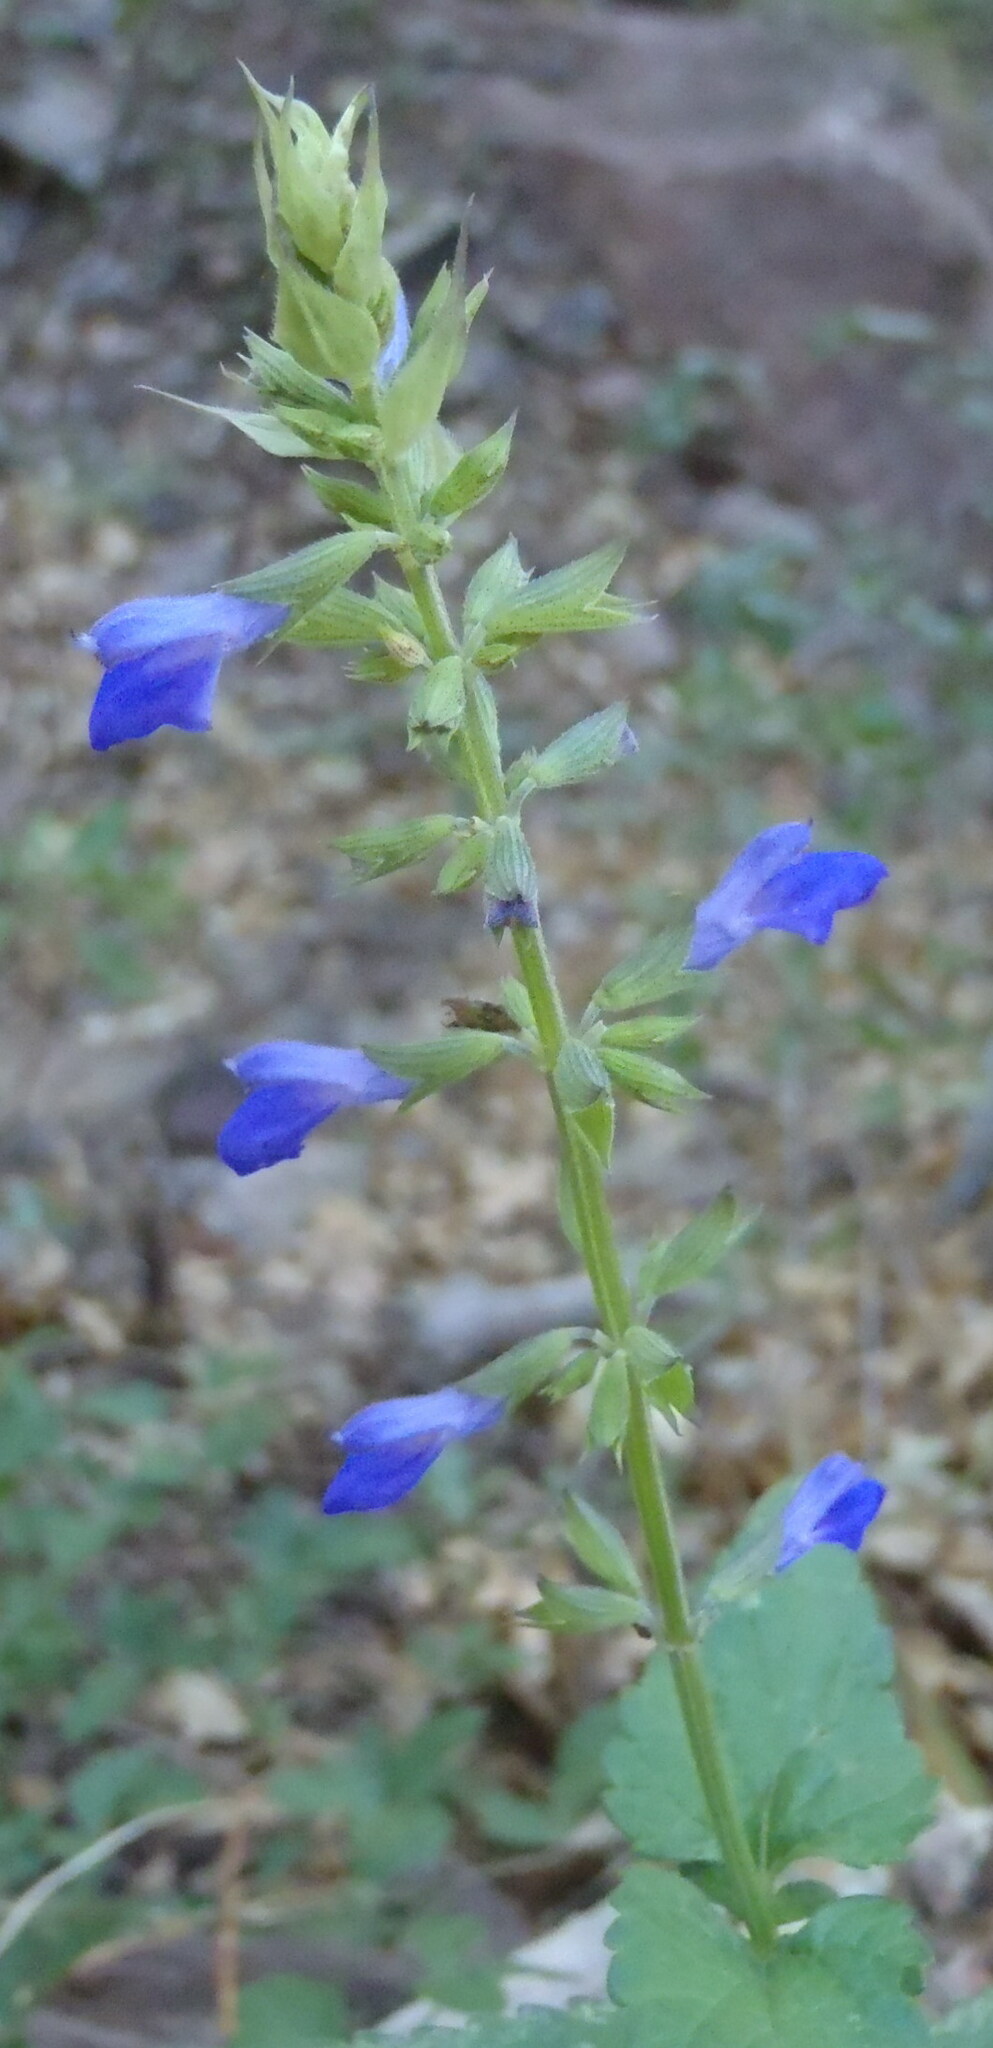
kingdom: Plantae
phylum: Tracheophyta
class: Magnoliopsida
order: Lamiales
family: Lamiaceae
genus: Salvia
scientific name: Salvia arizonica
